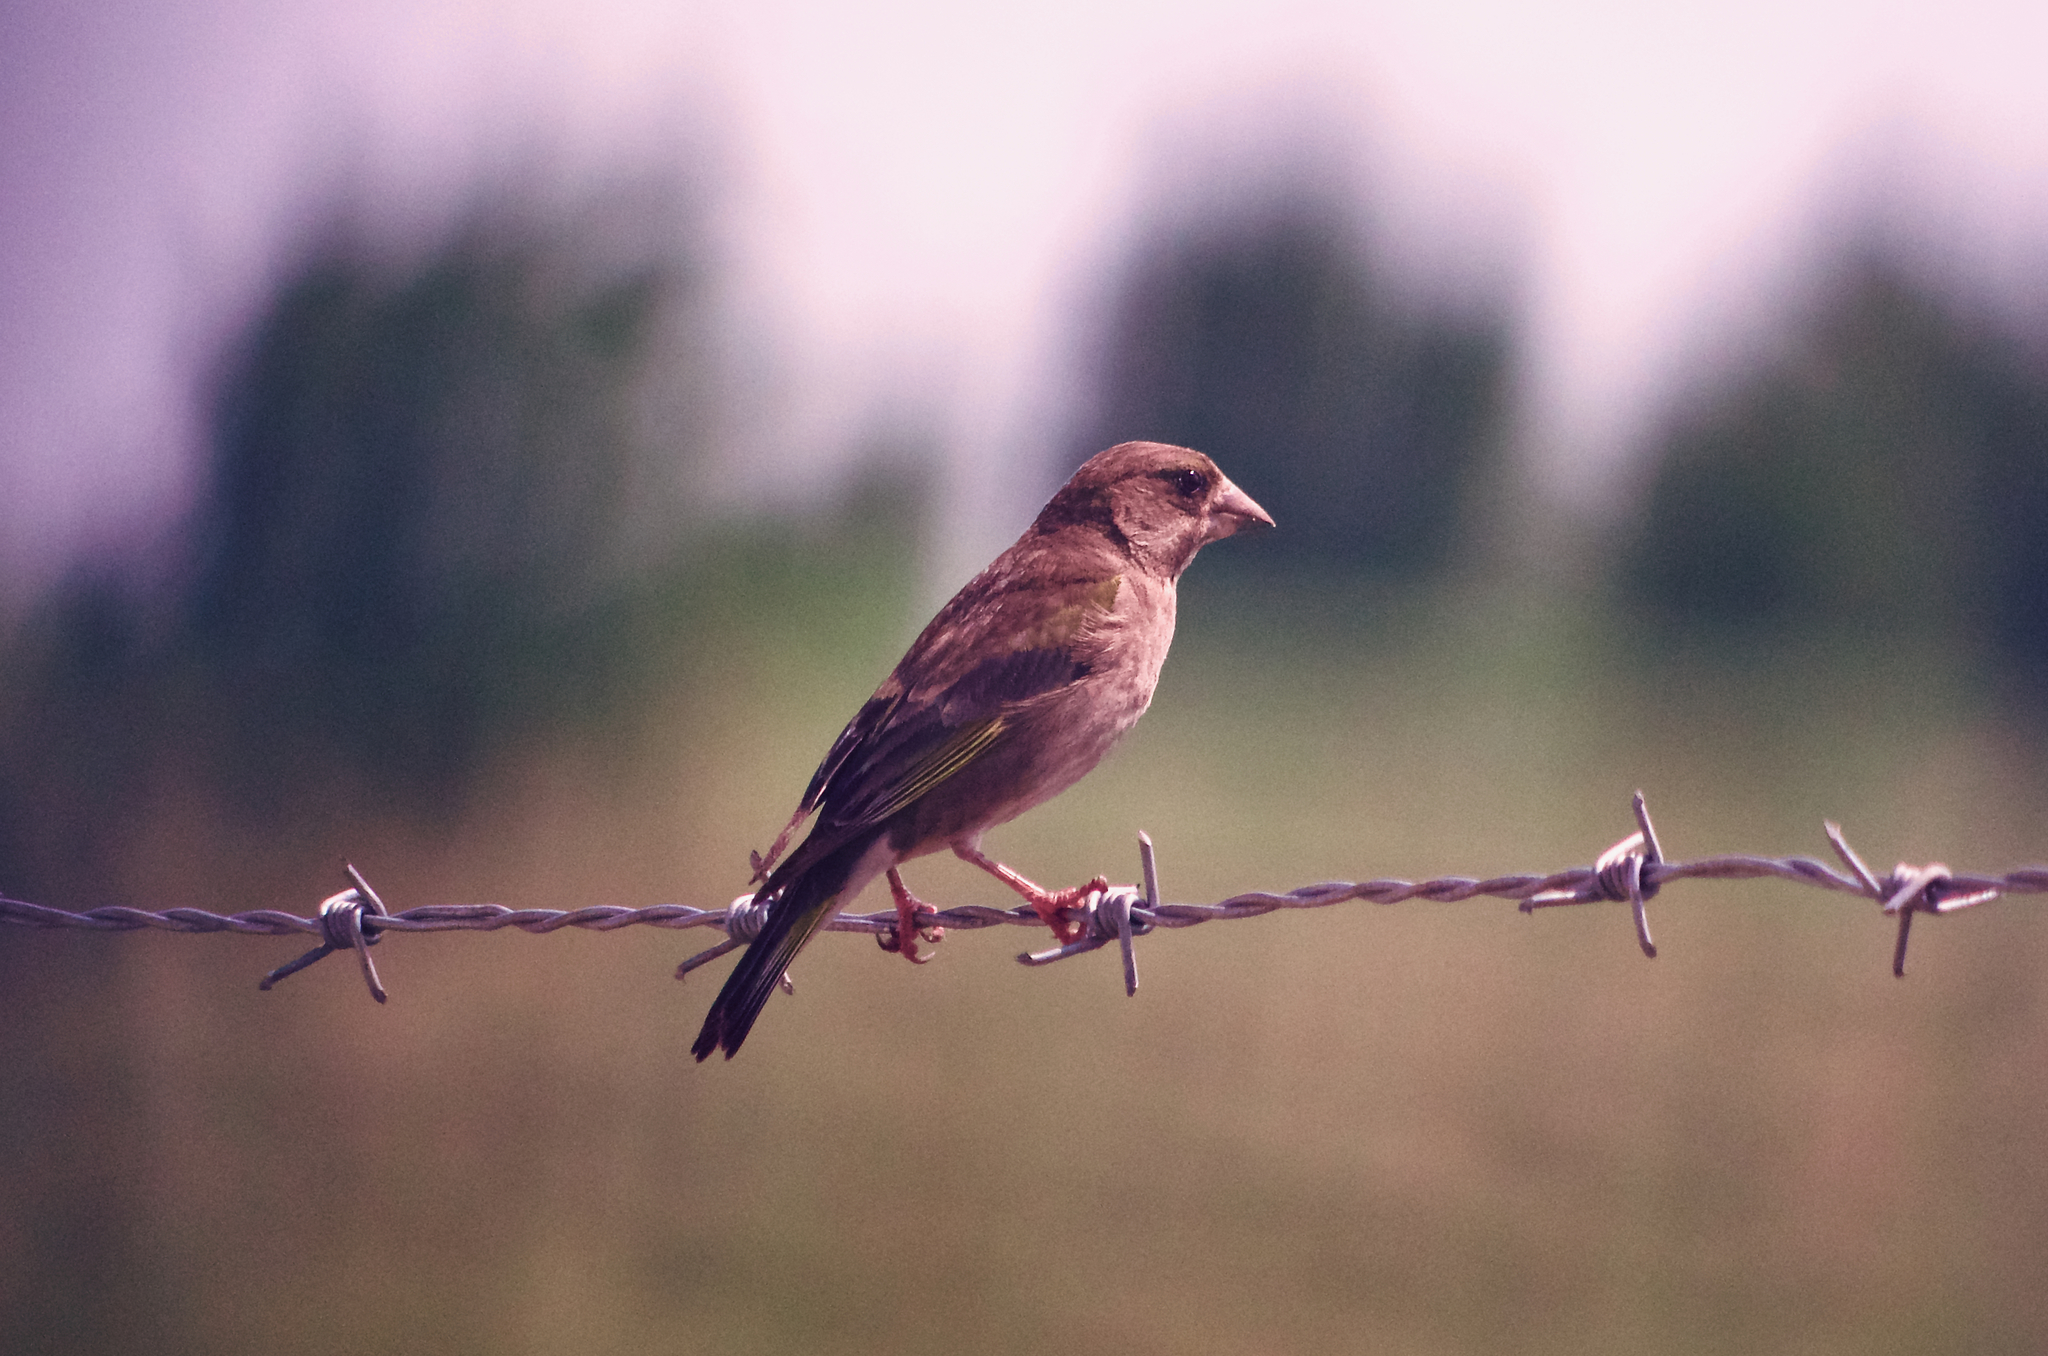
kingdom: Plantae
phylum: Tracheophyta
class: Liliopsida
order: Poales
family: Poaceae
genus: Chloris
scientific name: Chloris chloris
